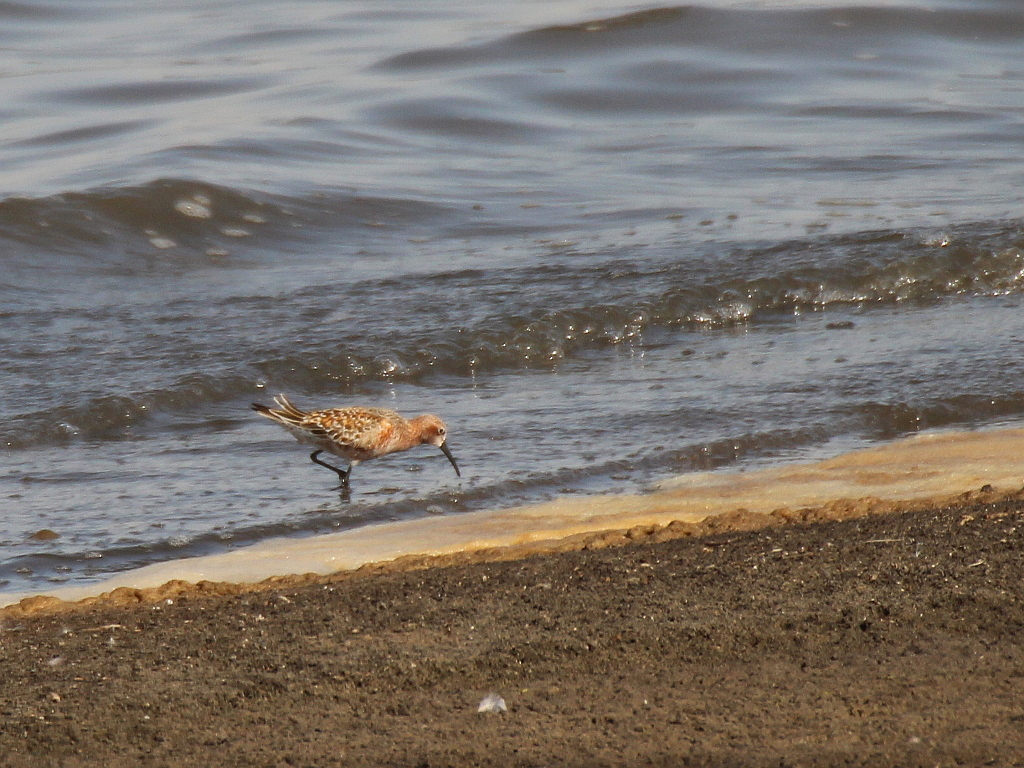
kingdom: Animalia
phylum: Chordata
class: Aves
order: Charadriiformes
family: Scolopacidae
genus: Calidris
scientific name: Calidris ferruginea
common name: Curlew sandpiper
